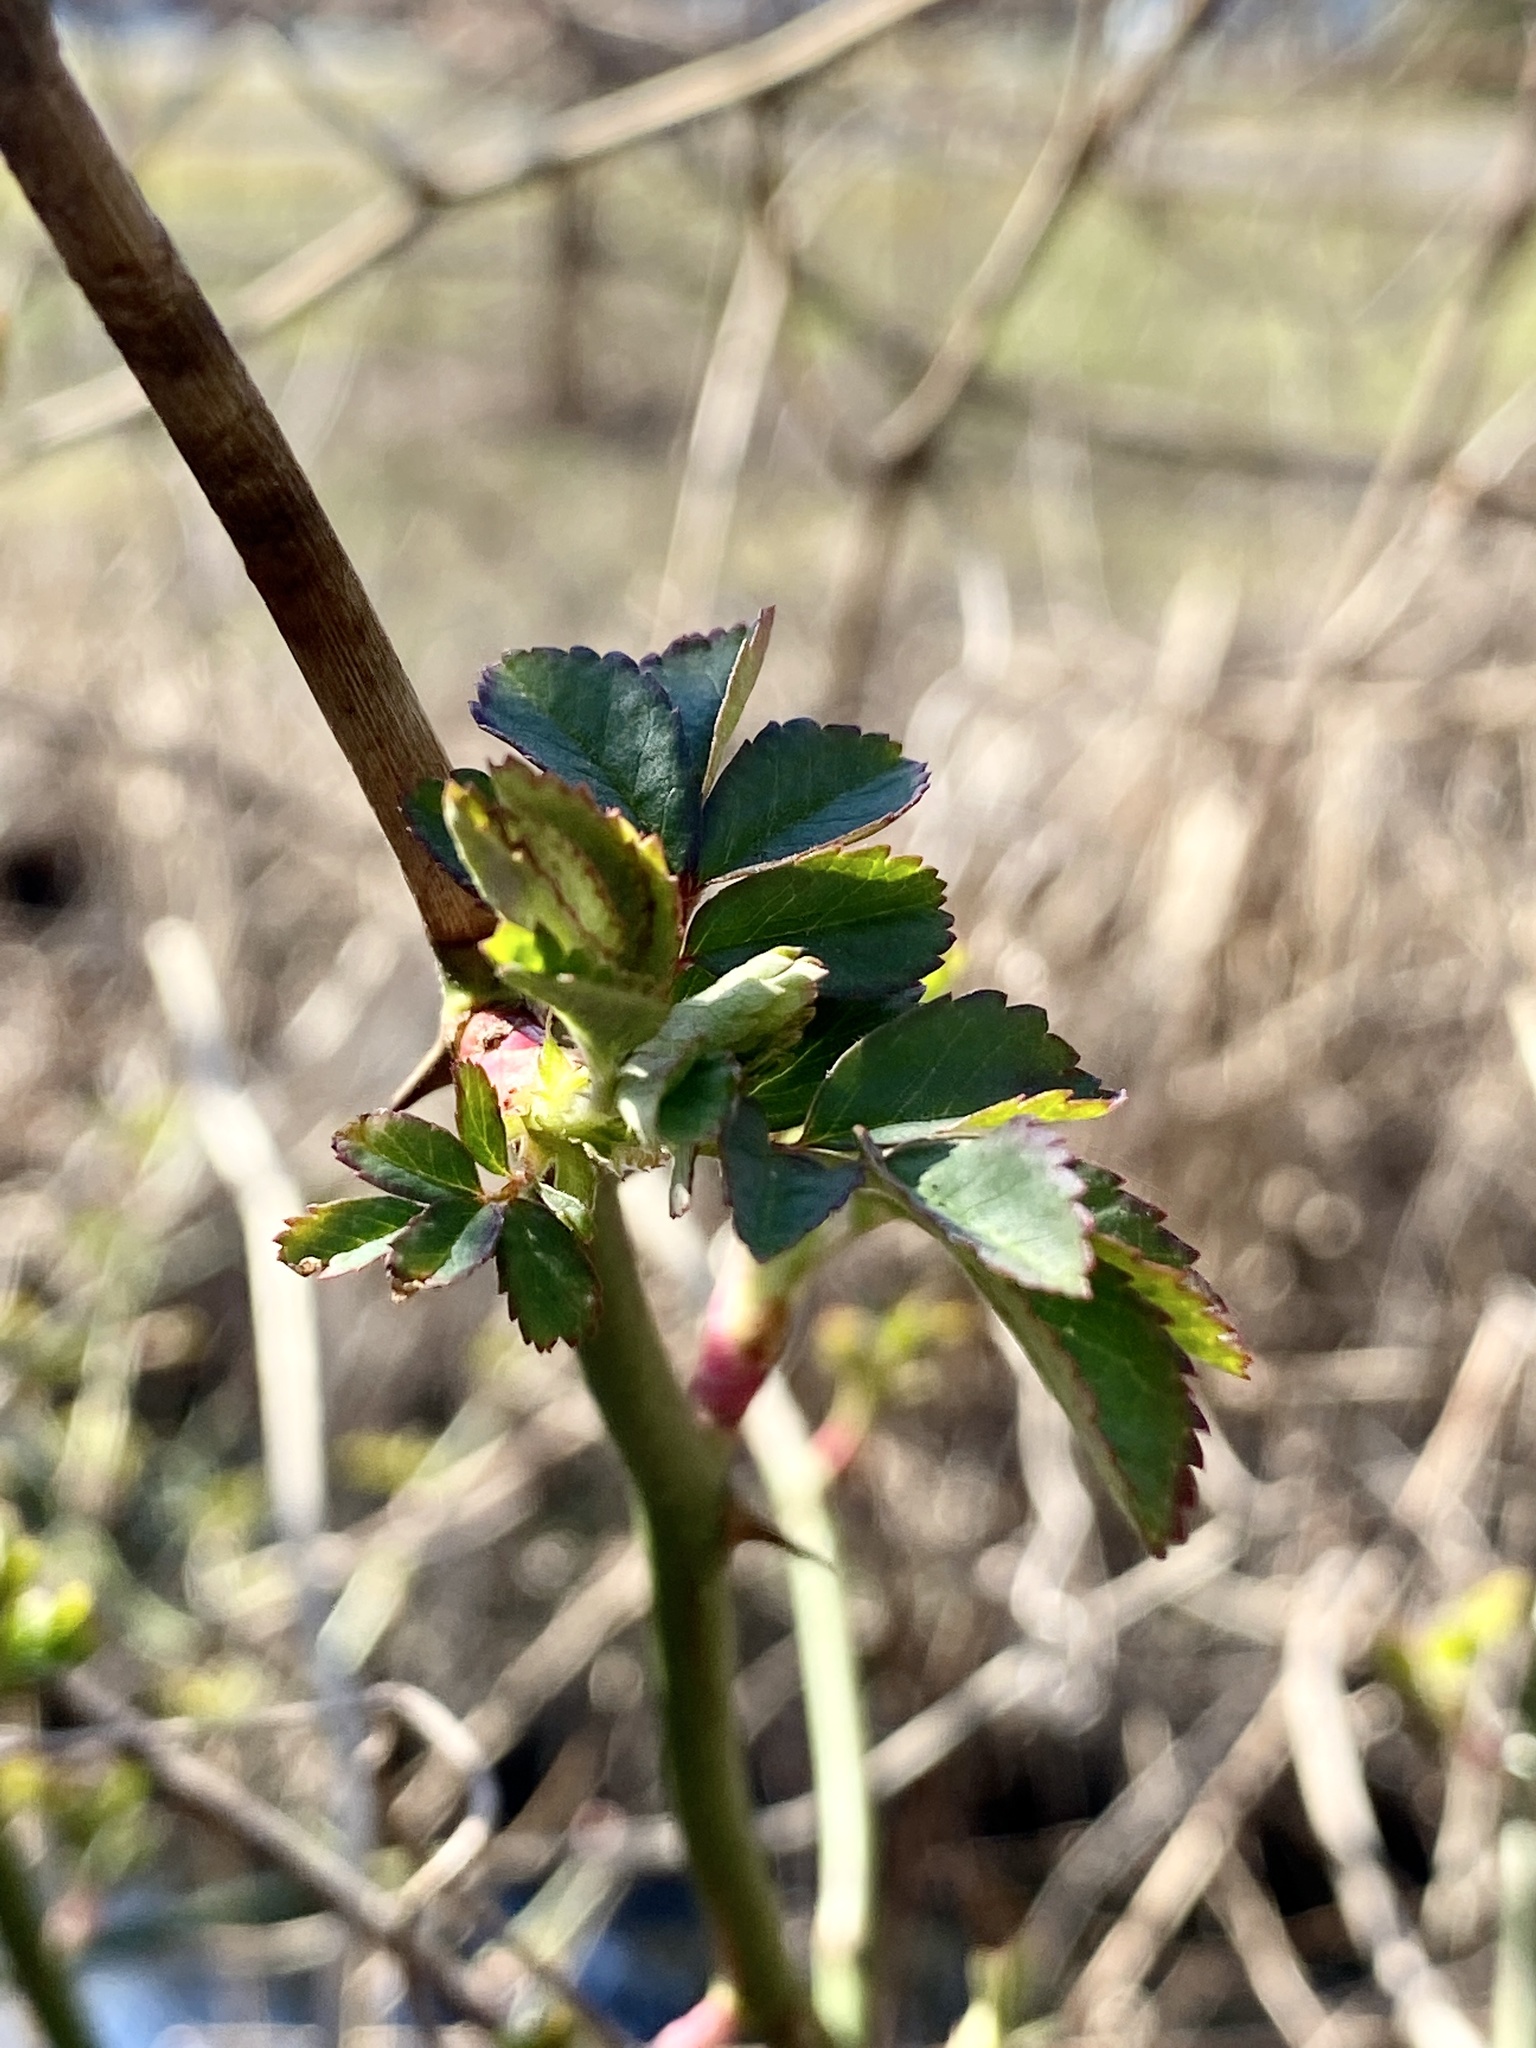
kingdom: Plantae
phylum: Tracheophyta
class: Magnoliopsida
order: Rosales
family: Rosaceae
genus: Rosa
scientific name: Rosa multiflora
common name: Multiflora rose
